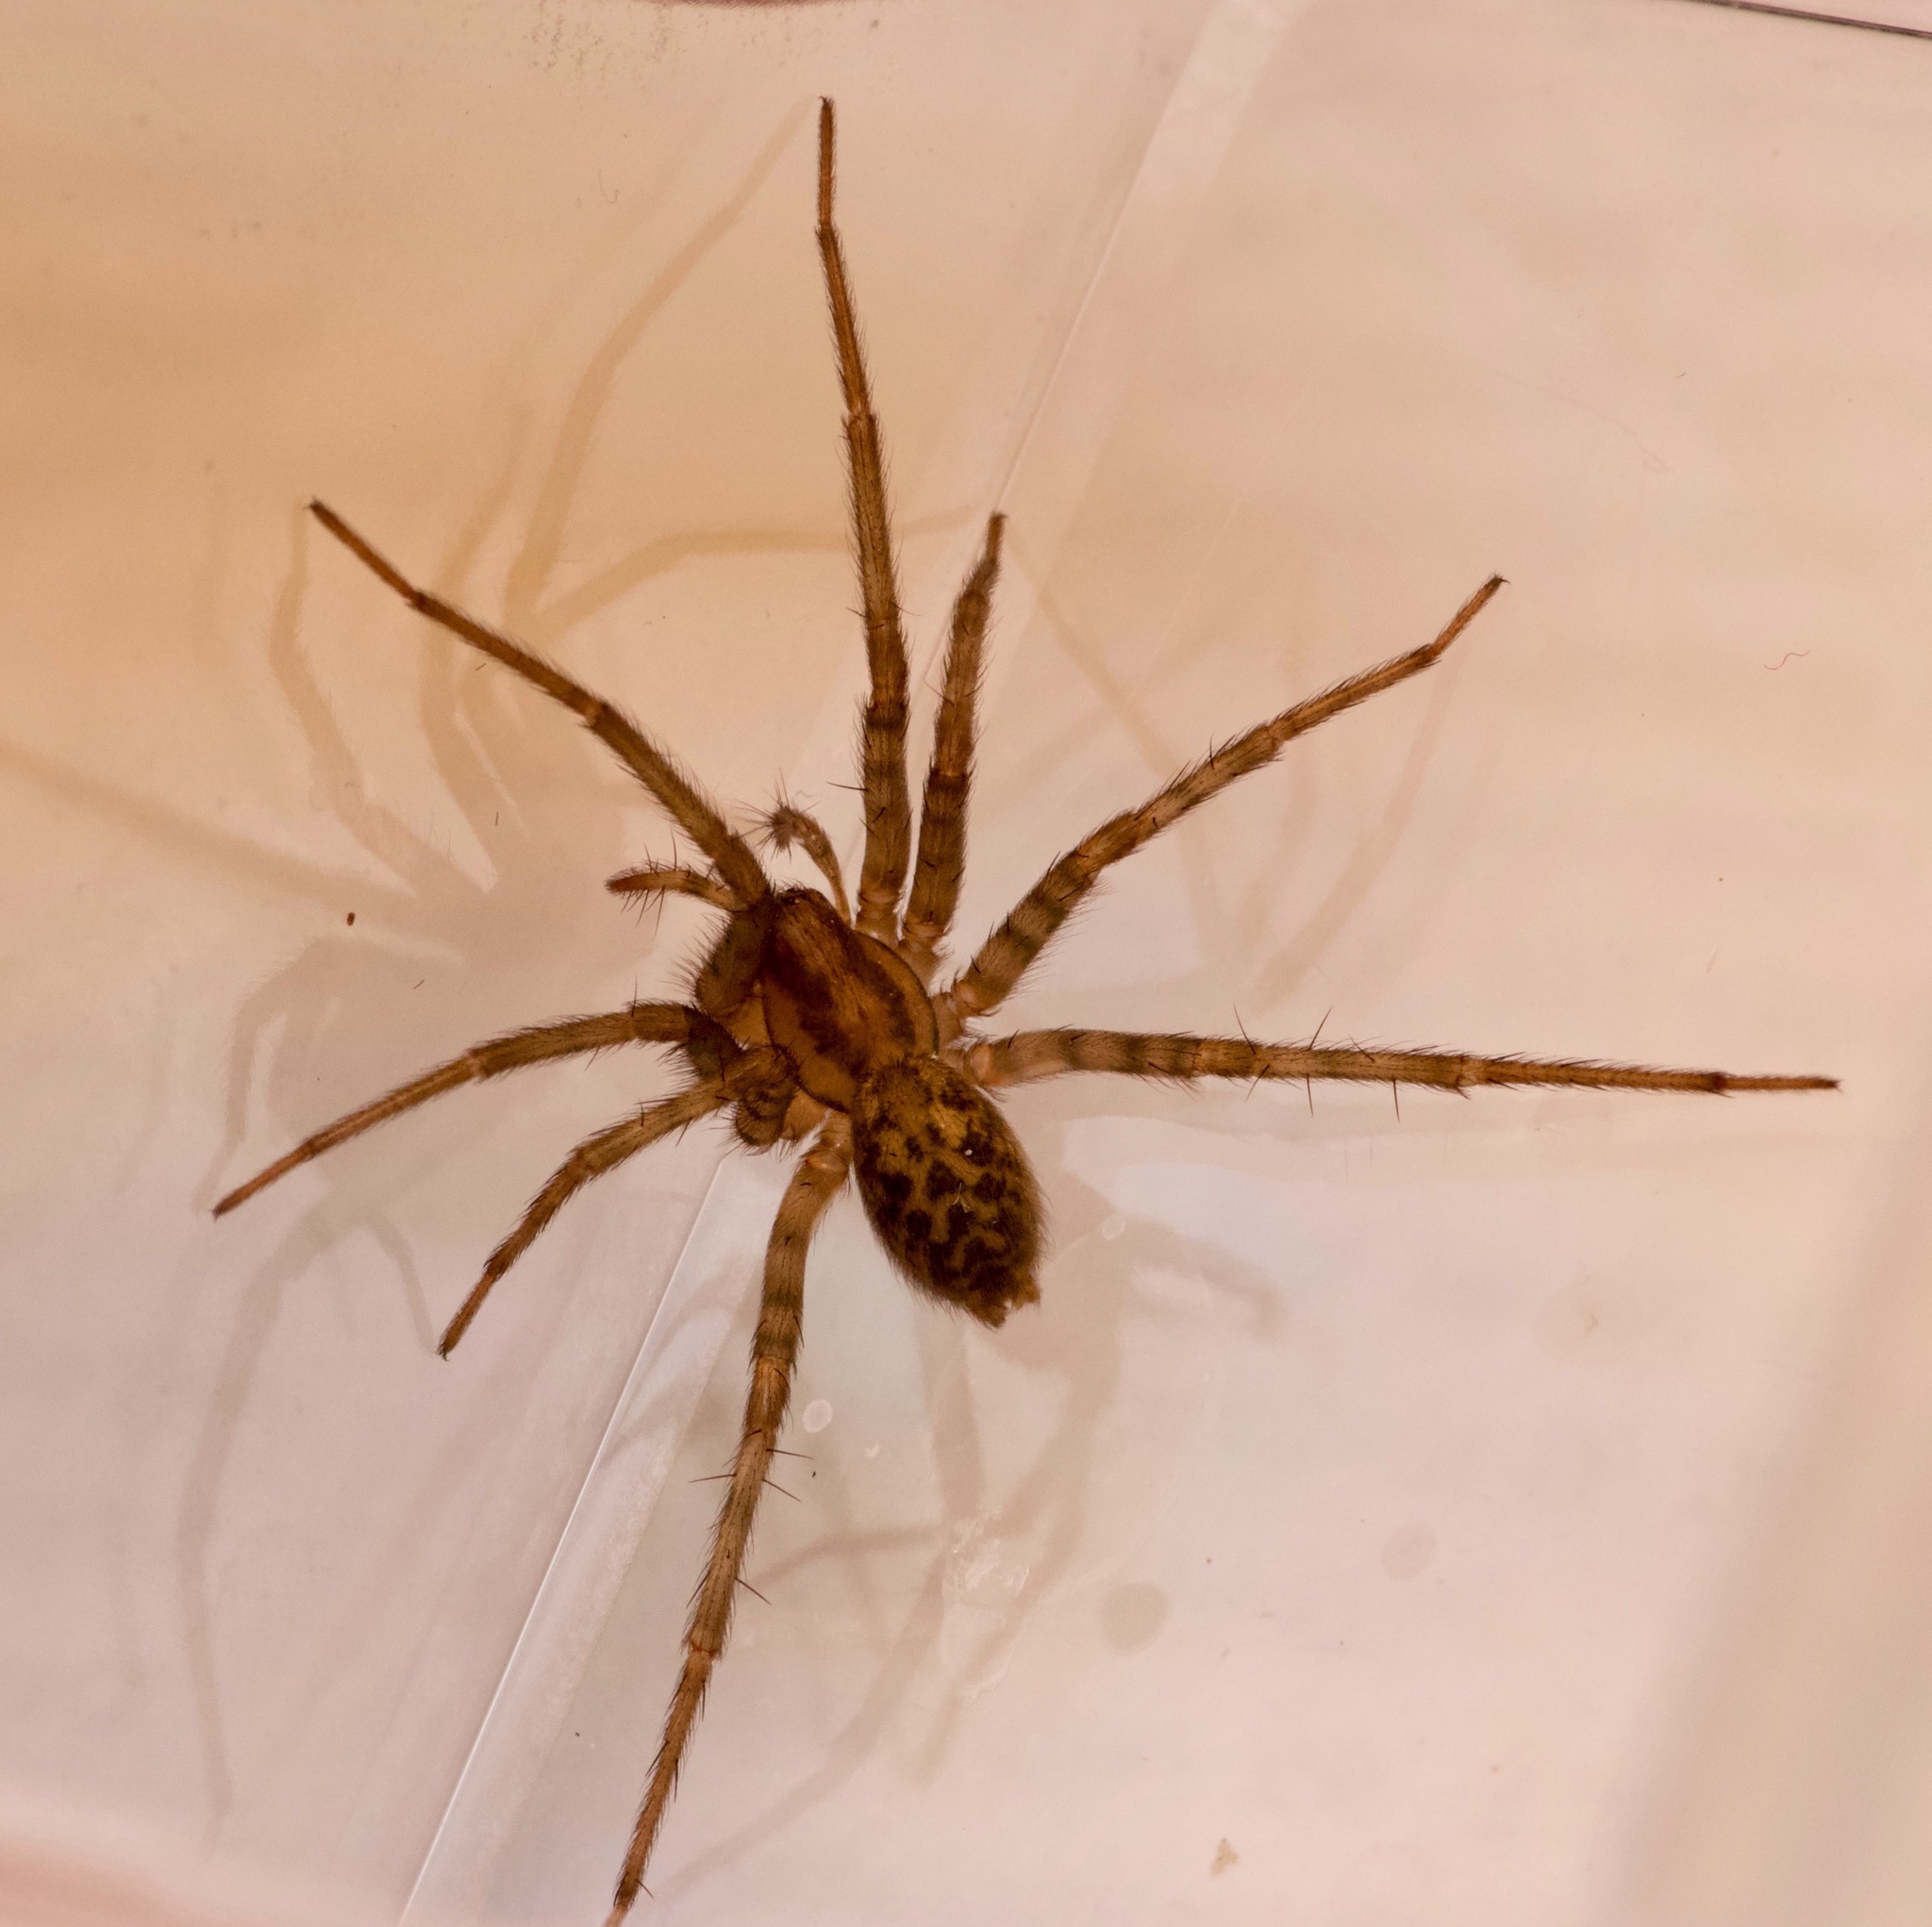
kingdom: Animalia
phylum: Arthropoda
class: Arachnida
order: Araneae
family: Agelenidae
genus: Tegenaria
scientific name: Tegenaria domestica
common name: Barn funnel weaver
